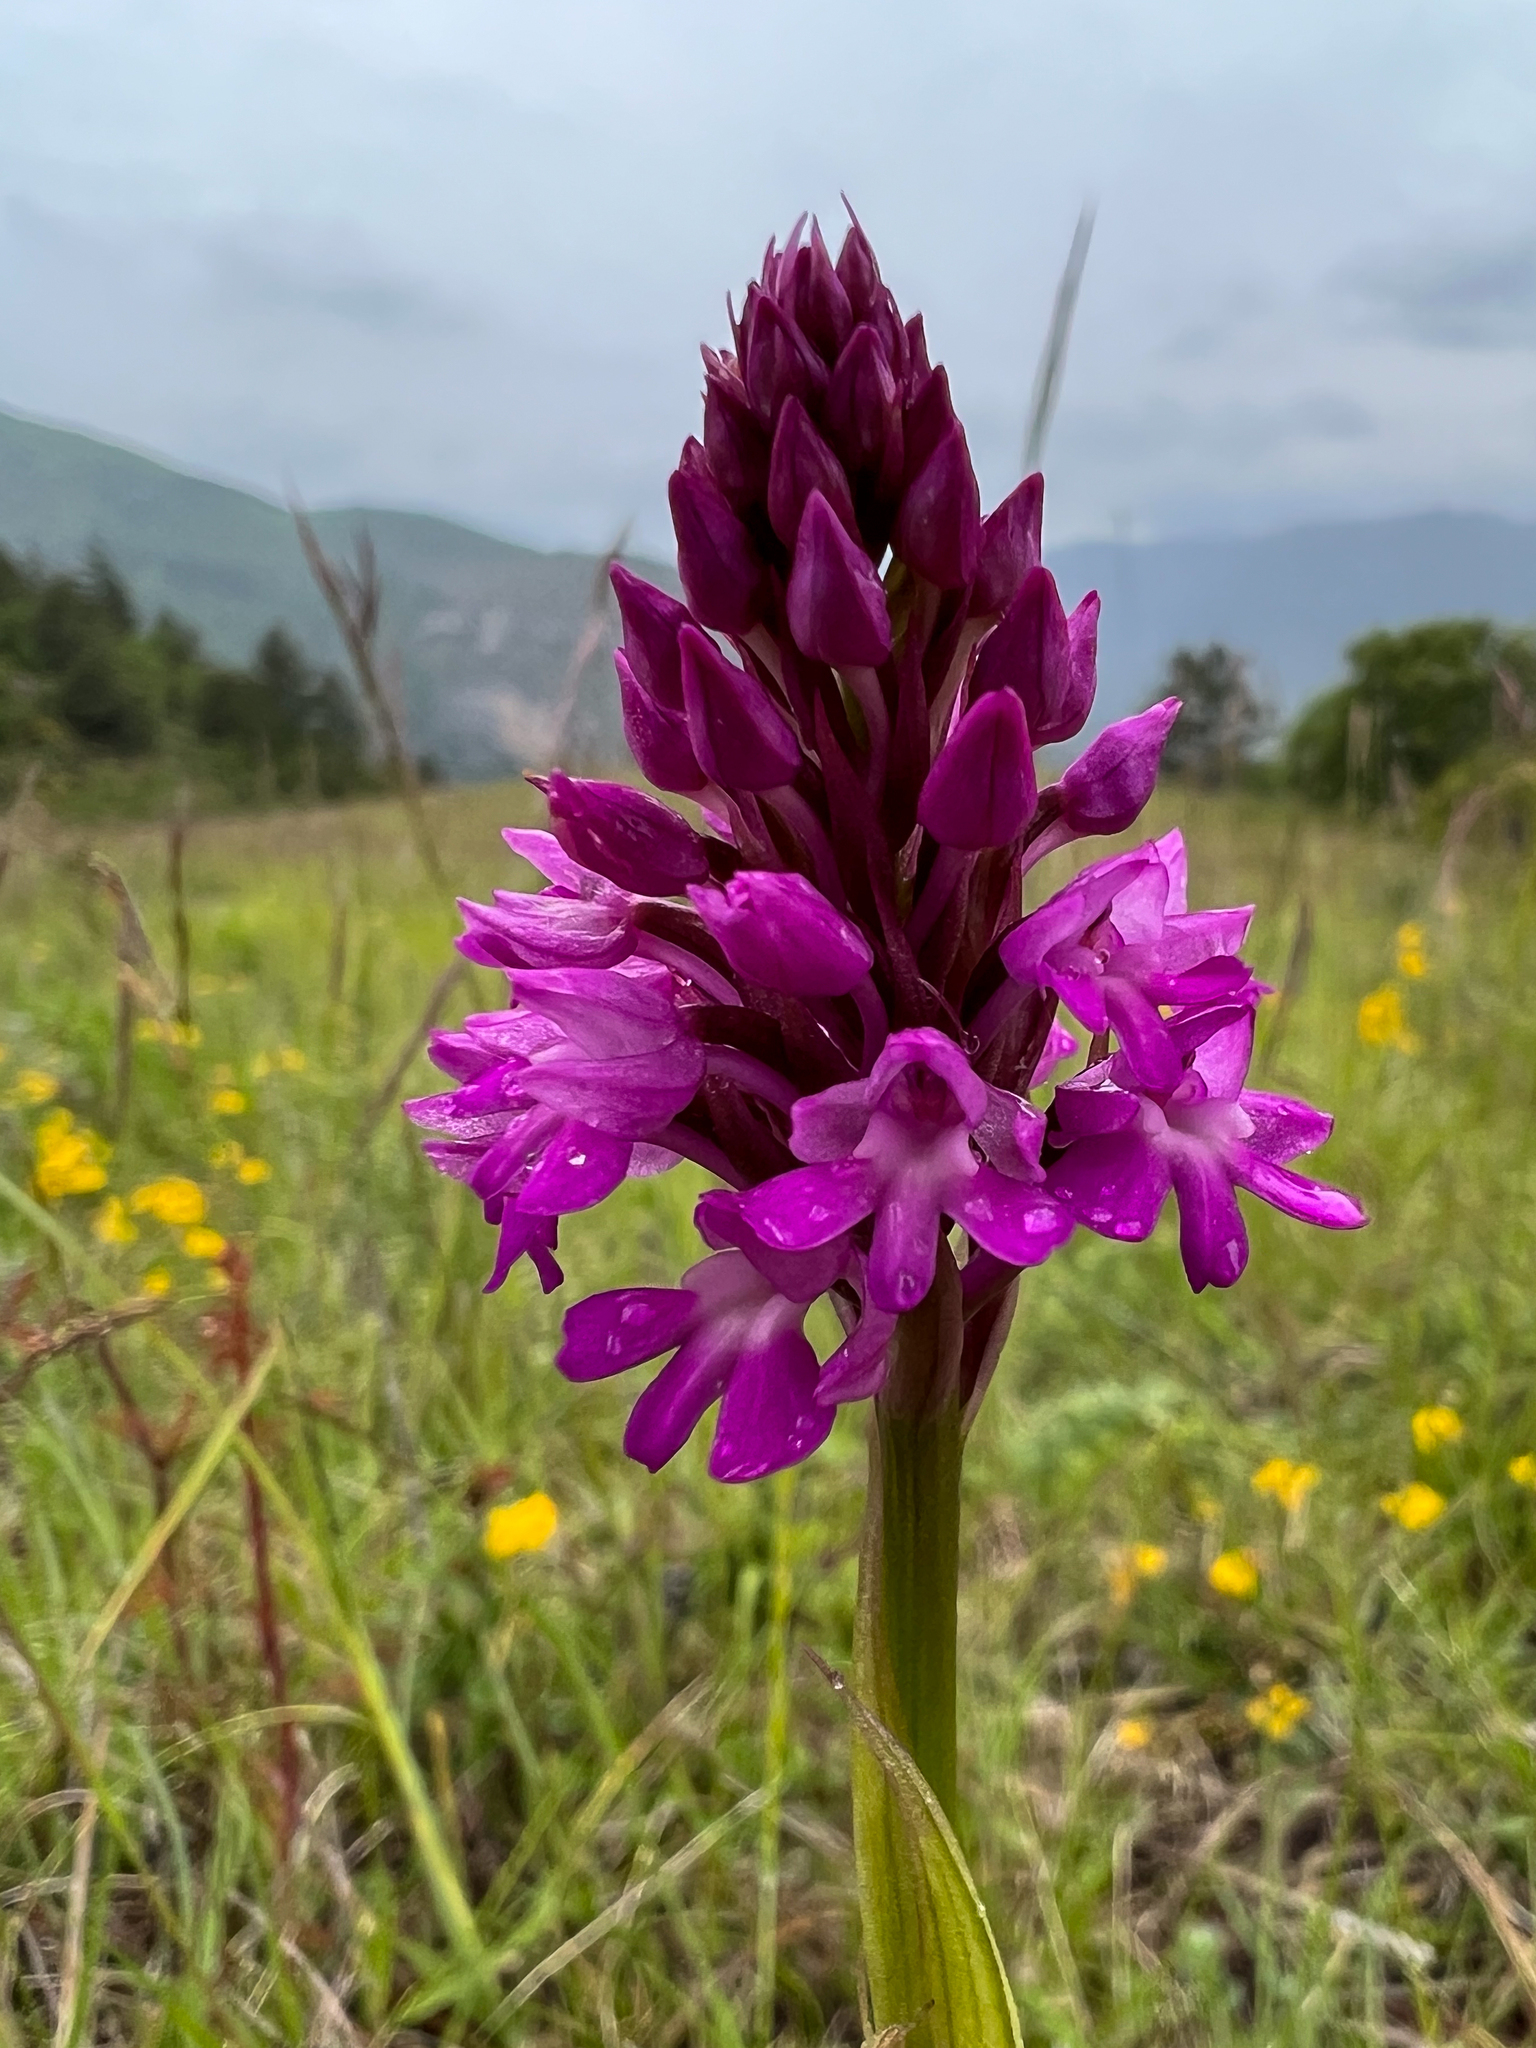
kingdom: Plantae
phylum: Tracheophyta
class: Liliopsida
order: Asparagales
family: Orchidaceae
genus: Anacamptis
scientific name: Anacamptis pyramidalis
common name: Pyramidal orchid
